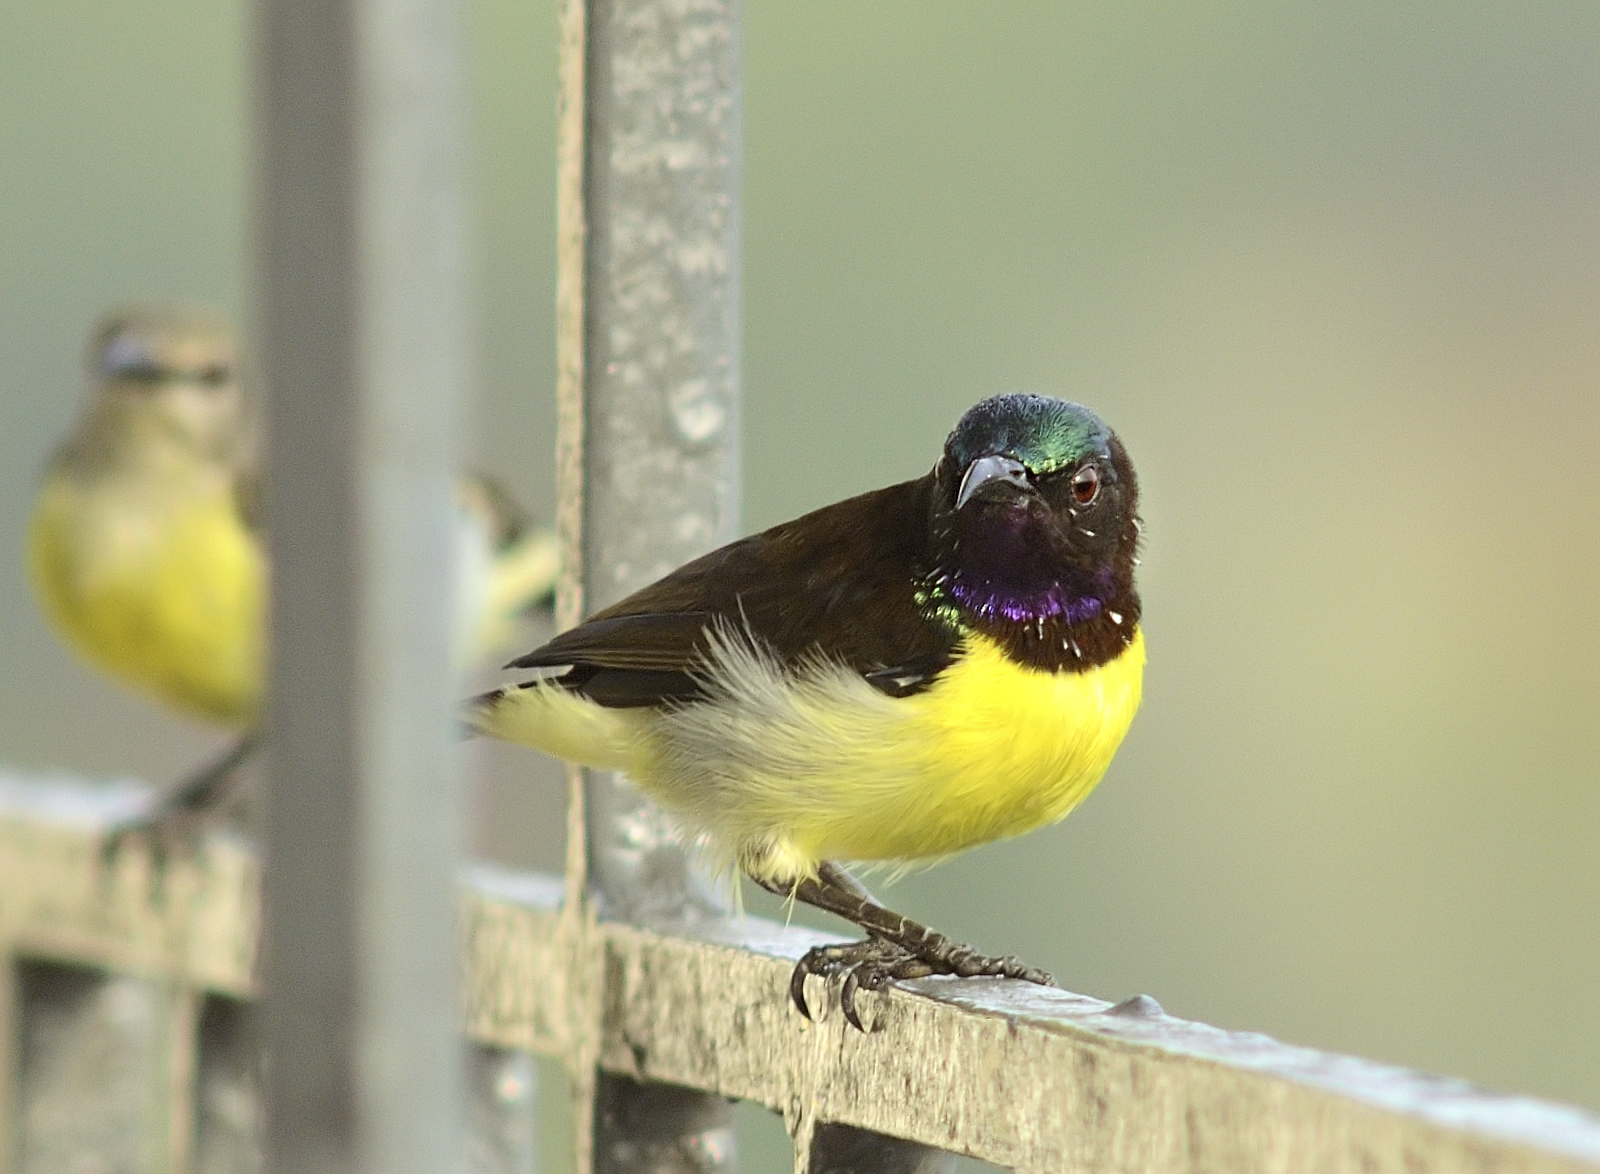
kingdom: Animalia
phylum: Chordata
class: Aves
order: Passeriformes
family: Nectariniidae
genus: Leptocoma
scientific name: Leptocoma zeylonica
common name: Purple-rumped sunbird
